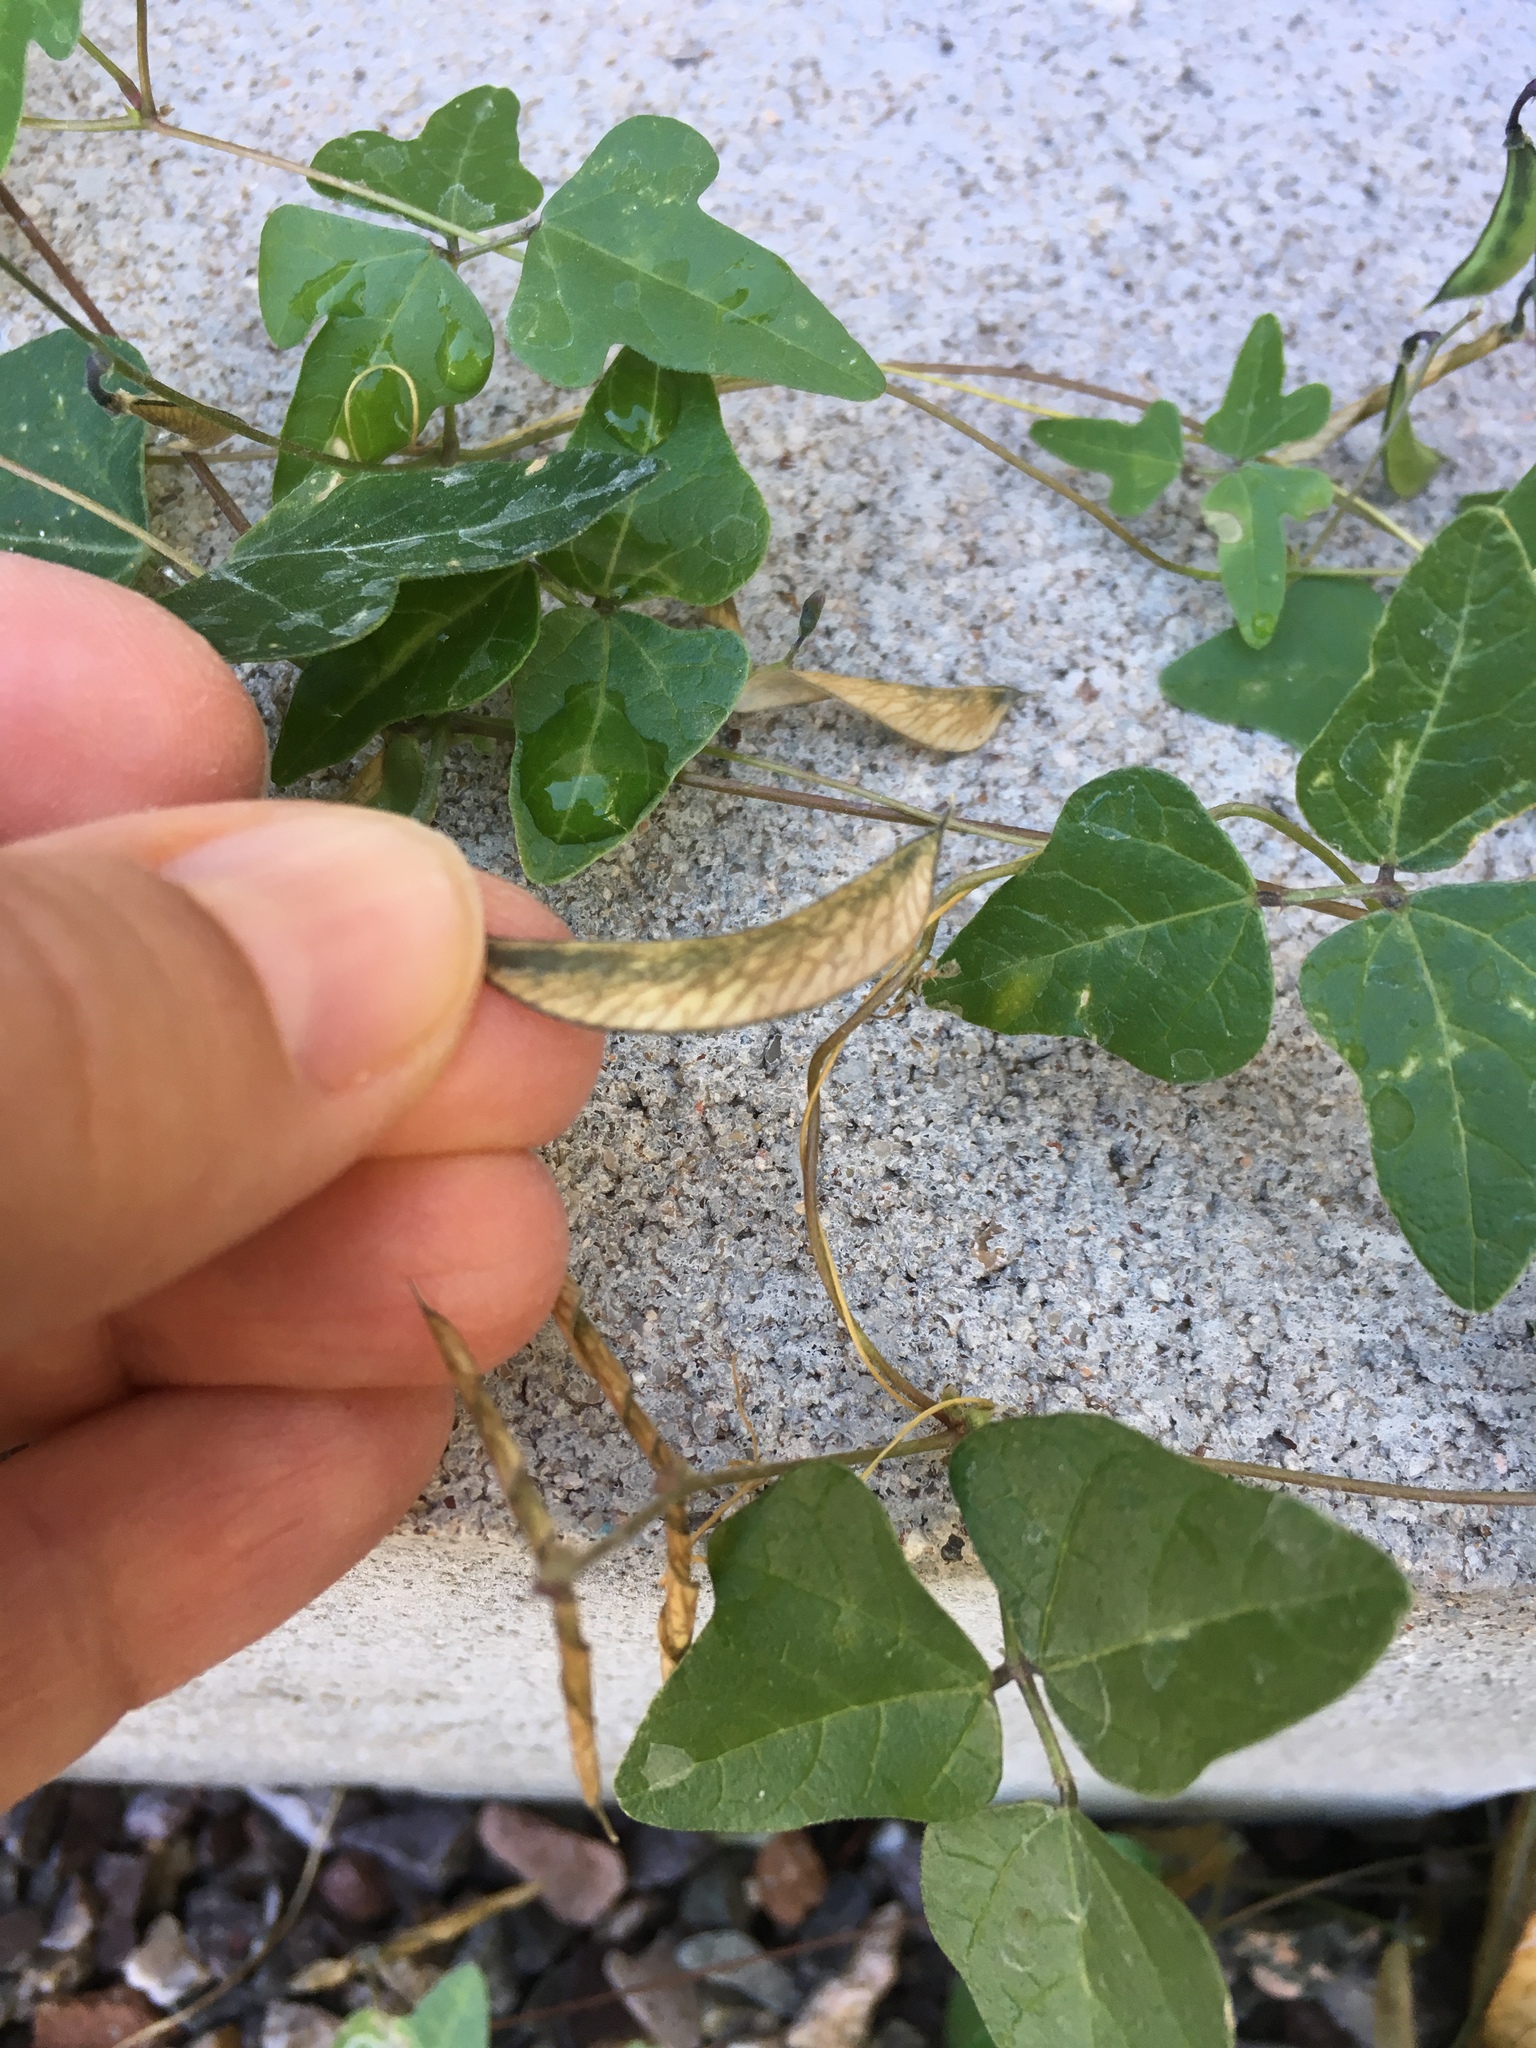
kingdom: Plantae
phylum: Tracheophyta
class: Magnoliopsida
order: Fabales
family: Fabaceae
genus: Phaseolus
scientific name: Phaseolus filiformis
